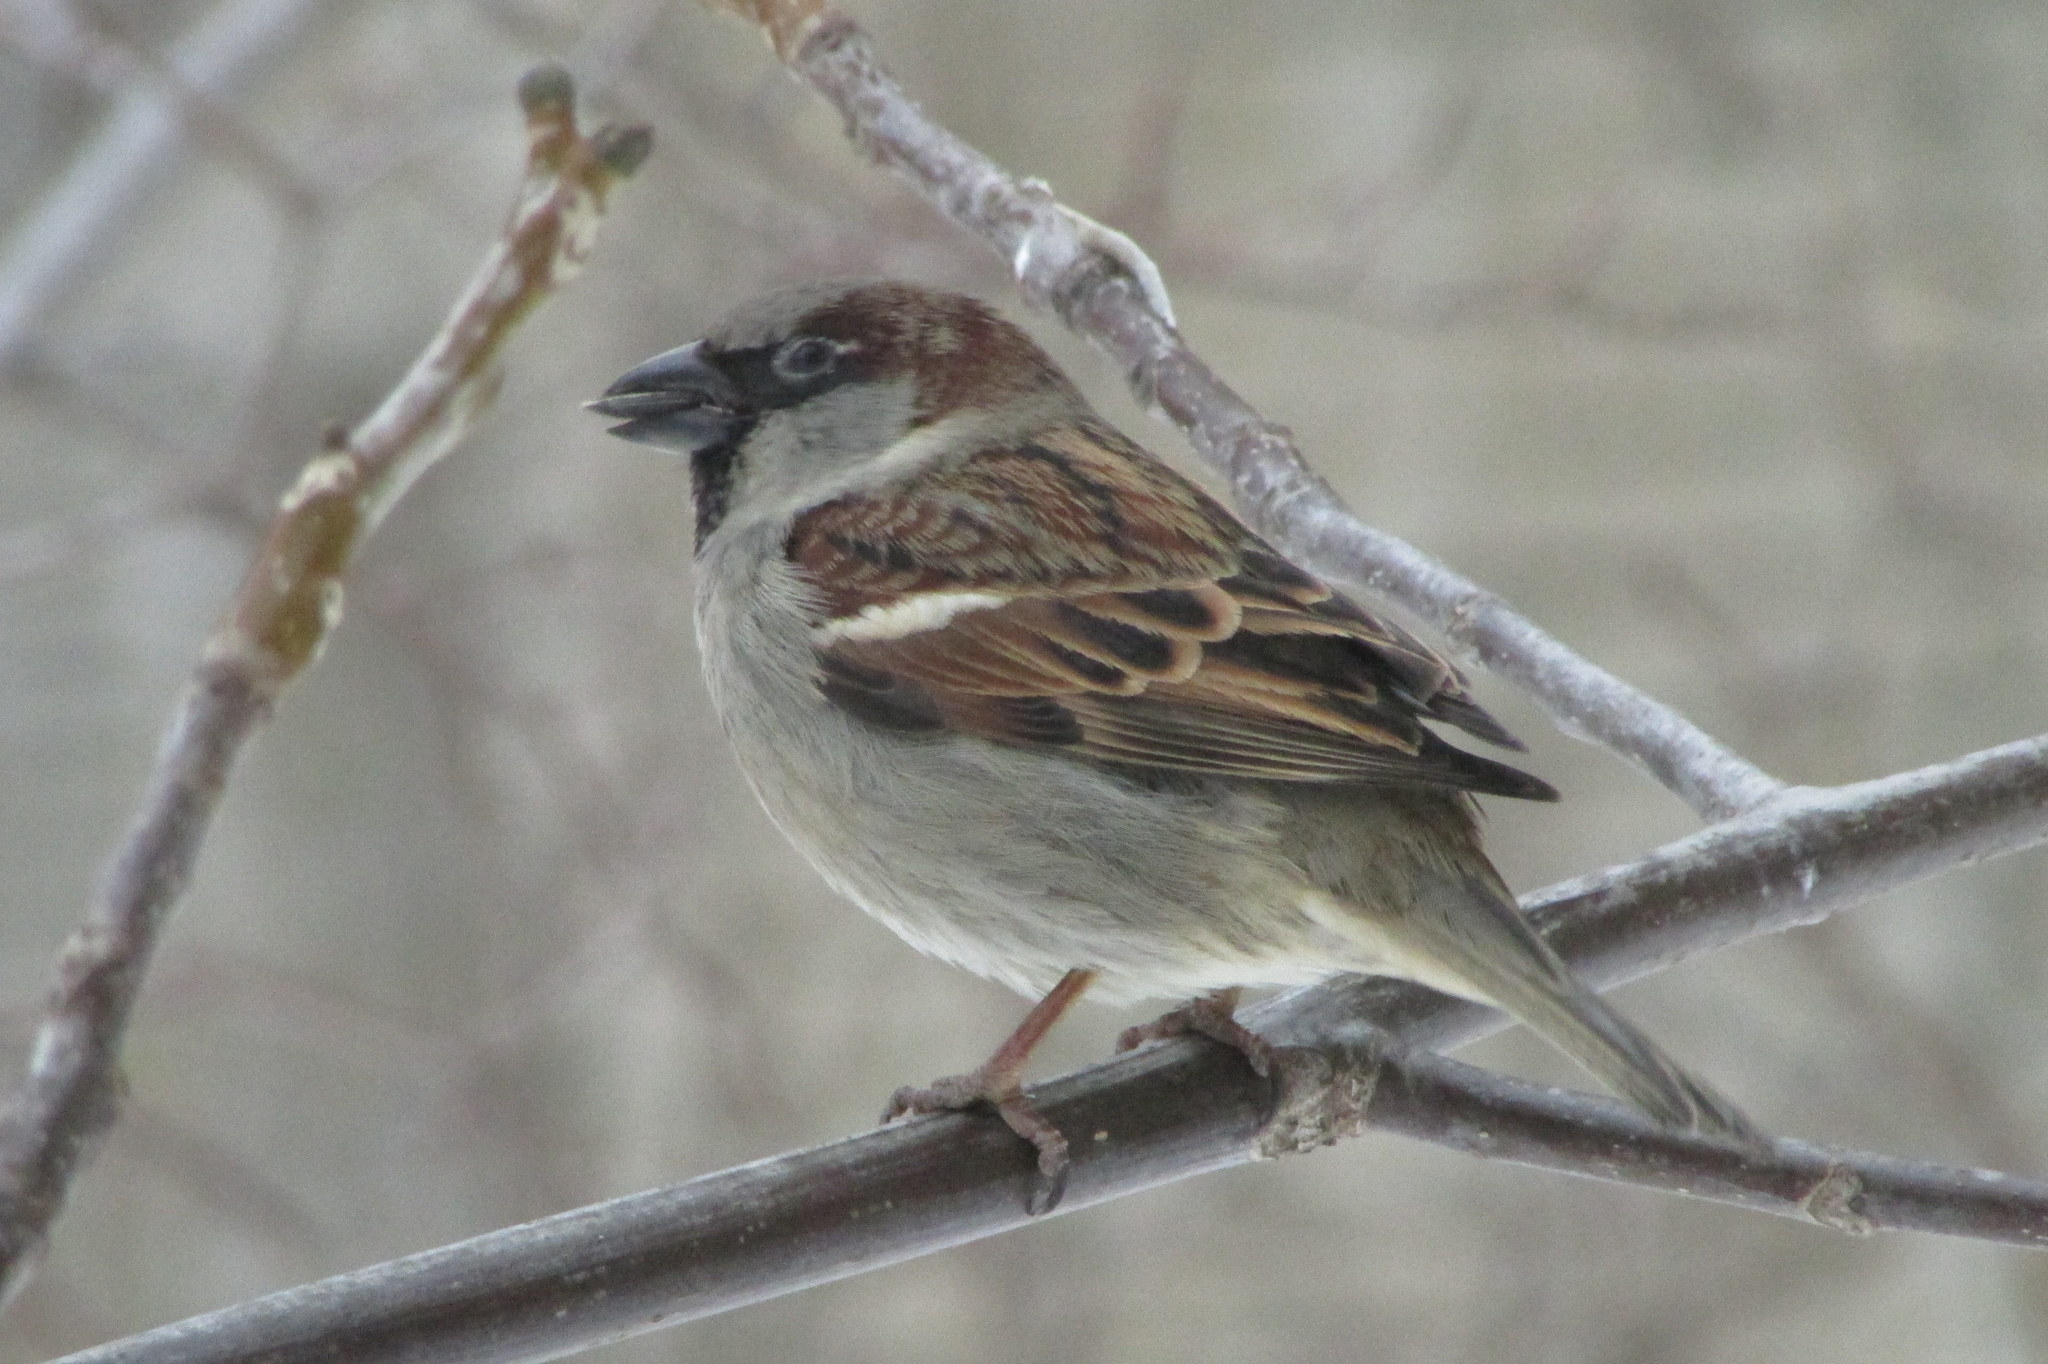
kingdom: Animalia
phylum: Chordata
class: Aves
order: Passeriformes
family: Passeridae
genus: Passer
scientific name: Passer domesticus
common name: House sparrow
